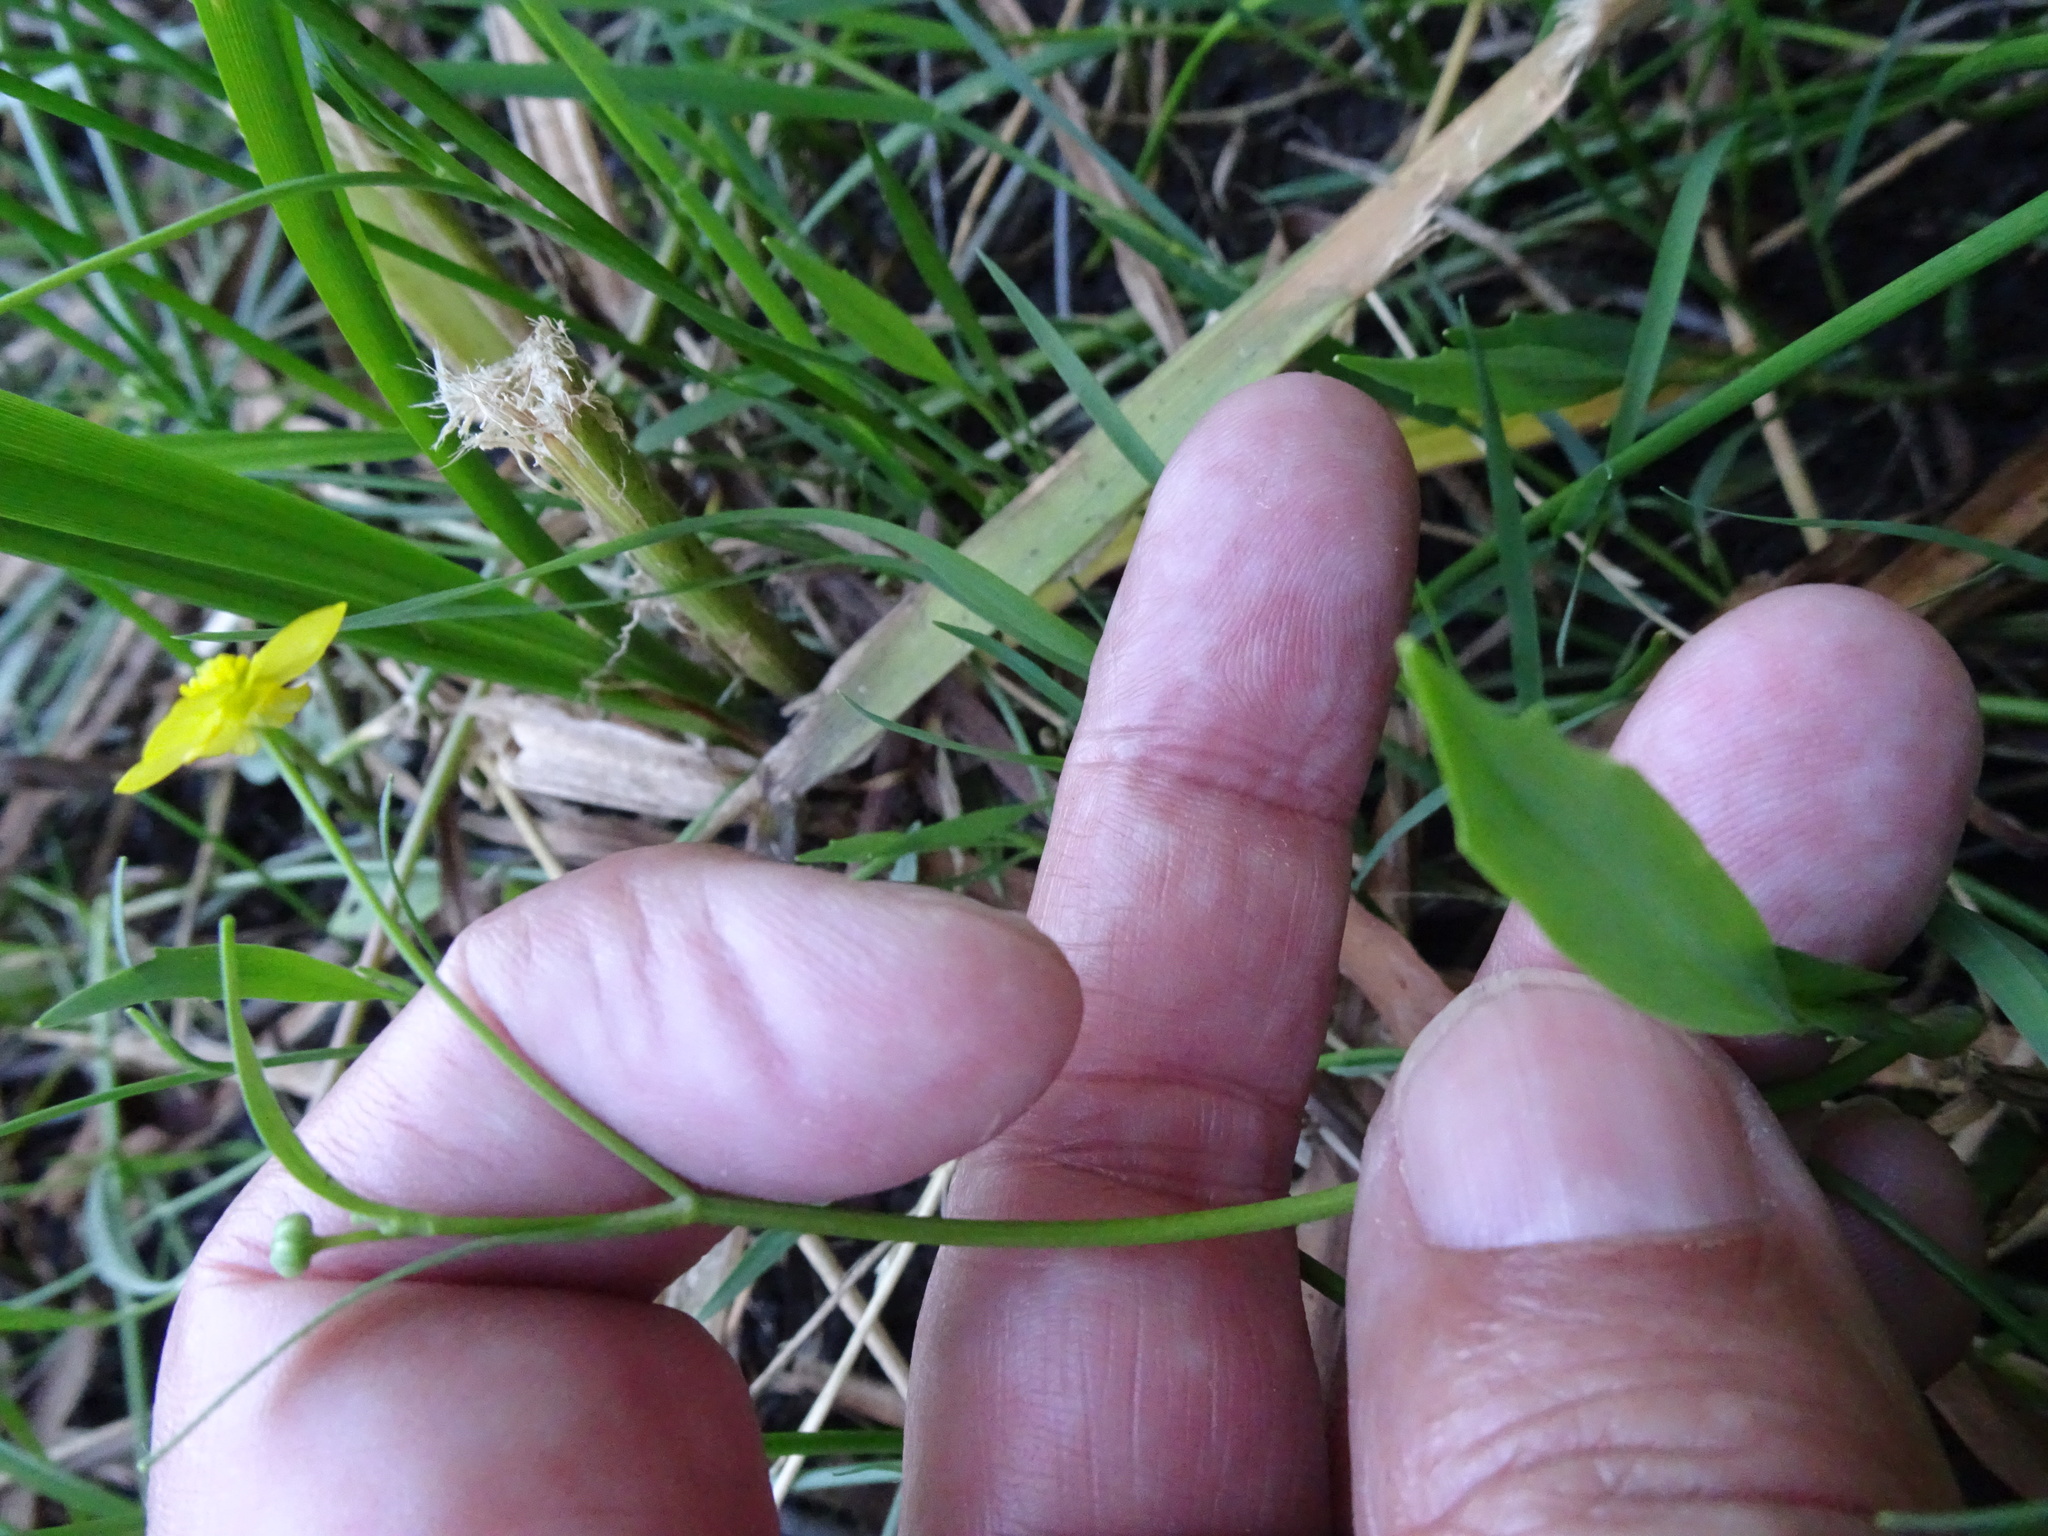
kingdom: Plantae
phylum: Tracheophyta
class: Magnoliopsida
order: Ranunculales
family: Ranunculaceae
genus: Ranunculus
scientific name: Ranunculus flammula
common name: Lesser spearwort
